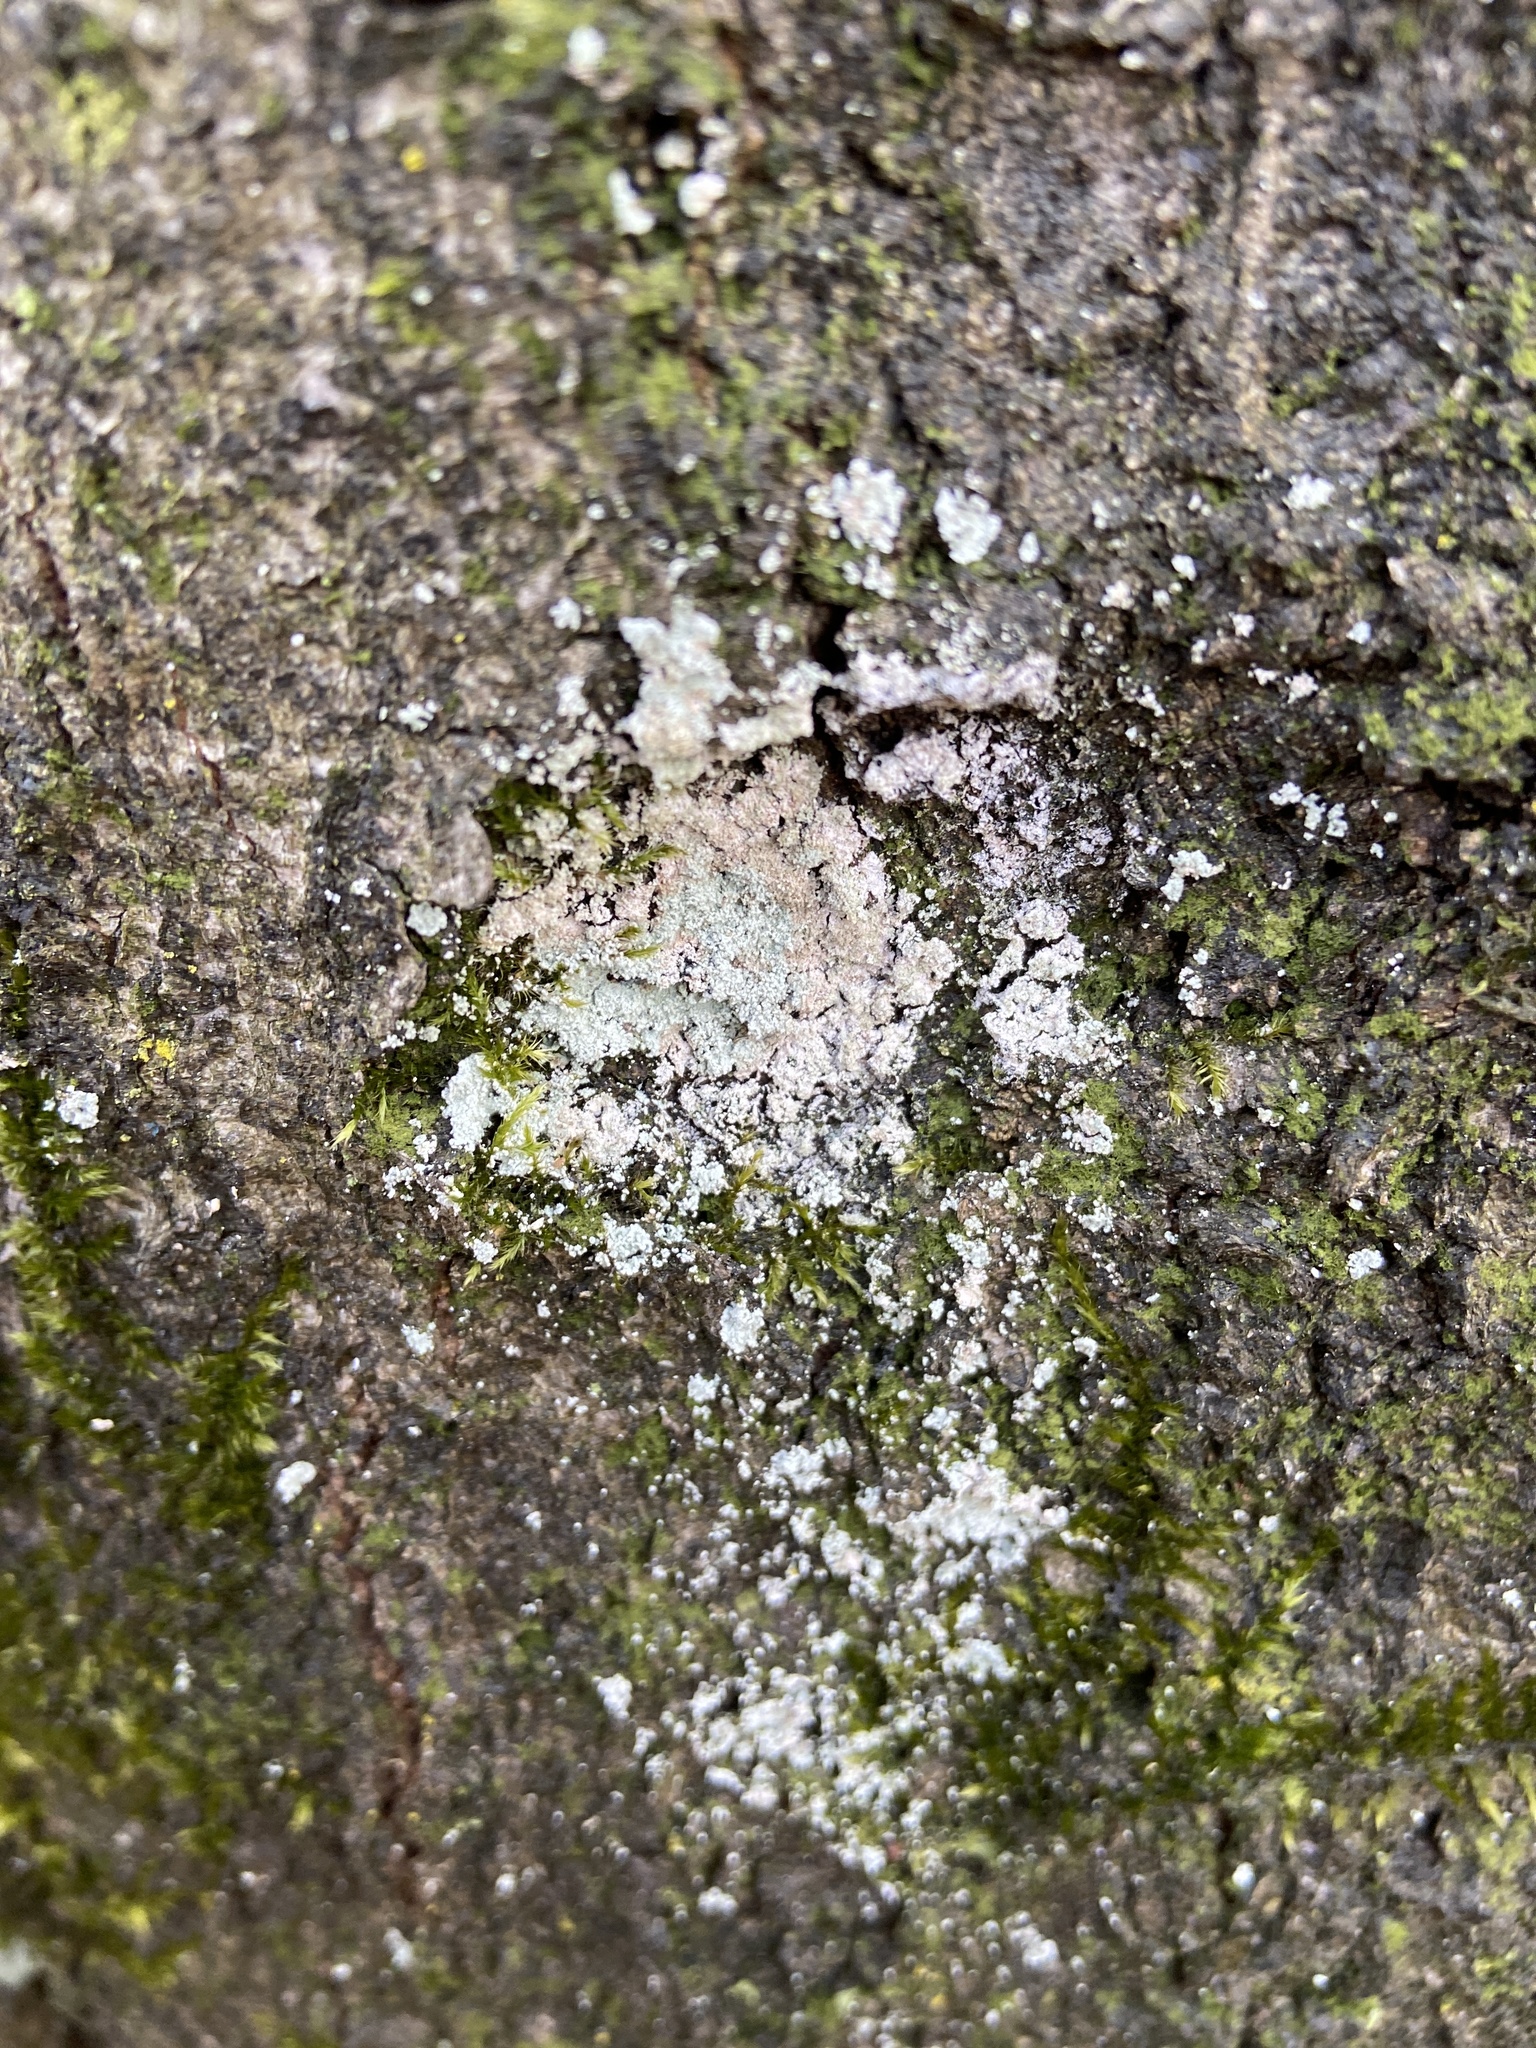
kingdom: Fungi
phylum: Ascomycota
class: Lecanoromycetes
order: Lecanorales
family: Stereocaulaceae
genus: Lepraria
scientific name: Lepraria
